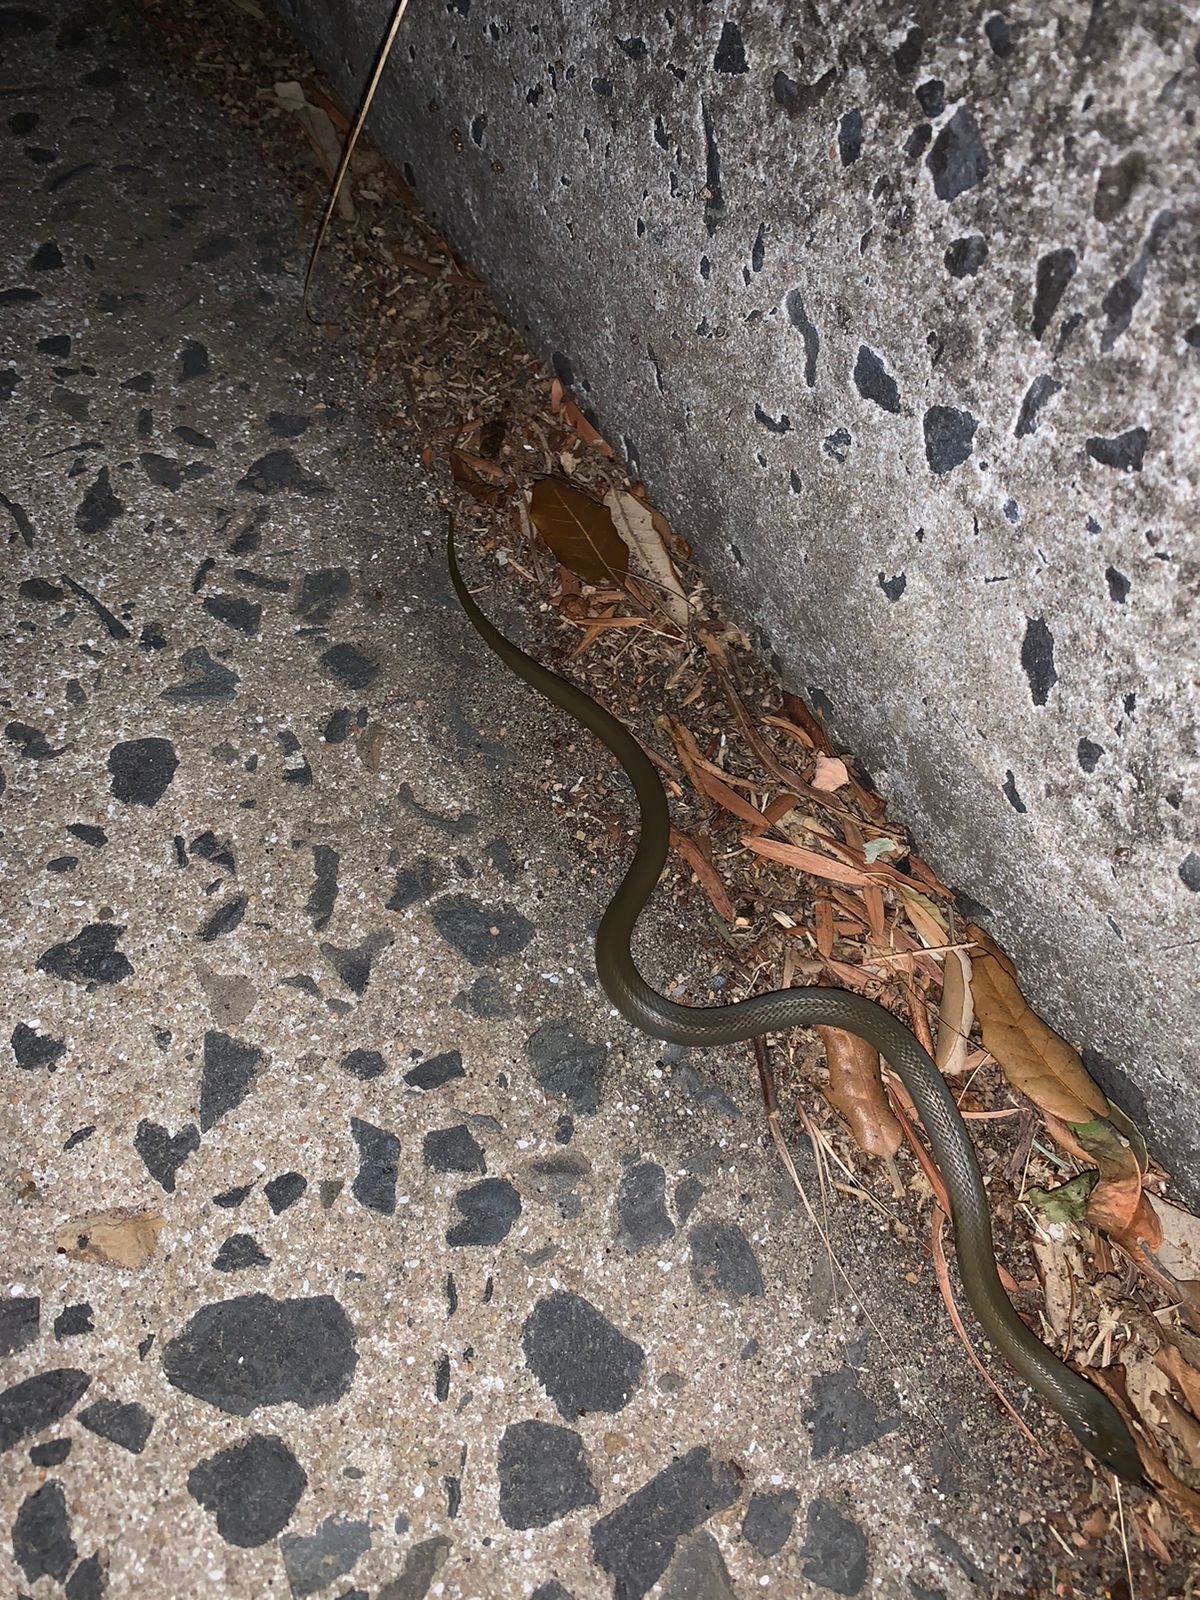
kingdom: Animalia
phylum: Chordata
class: Squamata
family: Lamprophiidae
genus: Lycodonomorphus
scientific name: Lycodonomorphus inornatus
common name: Black house snake
